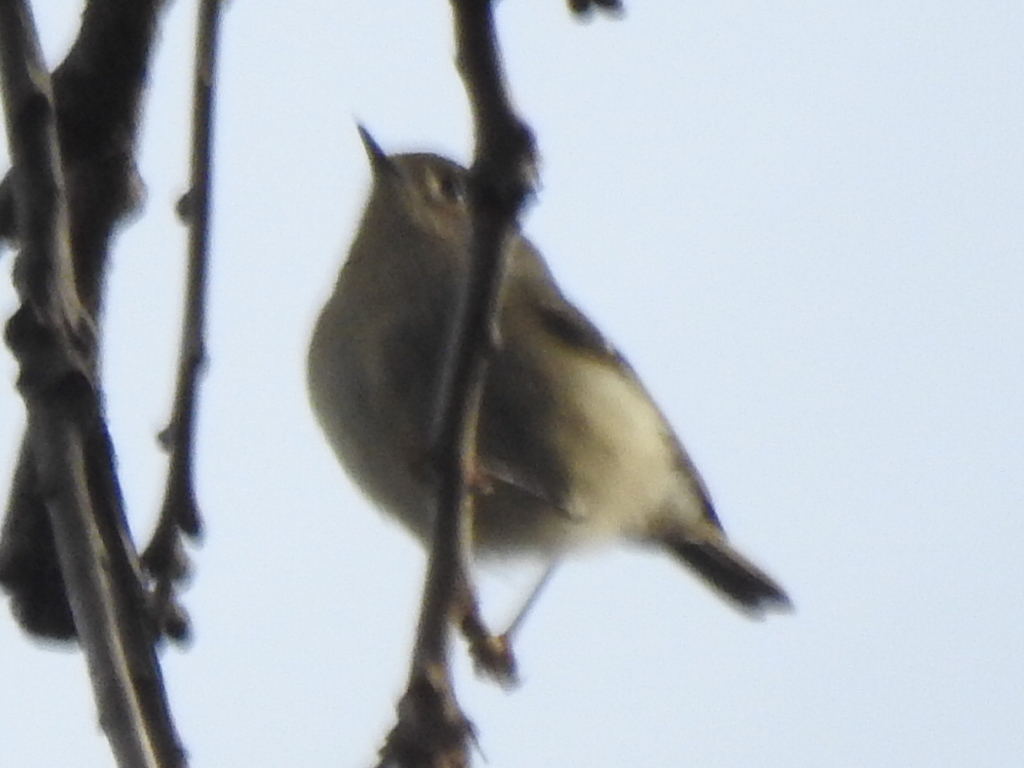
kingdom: Animalia
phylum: Chordata
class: Aves
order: Passeriformes
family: Regulidae
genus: Regulus
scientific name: Regulus calendula
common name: Ruby-crowned kinglet
